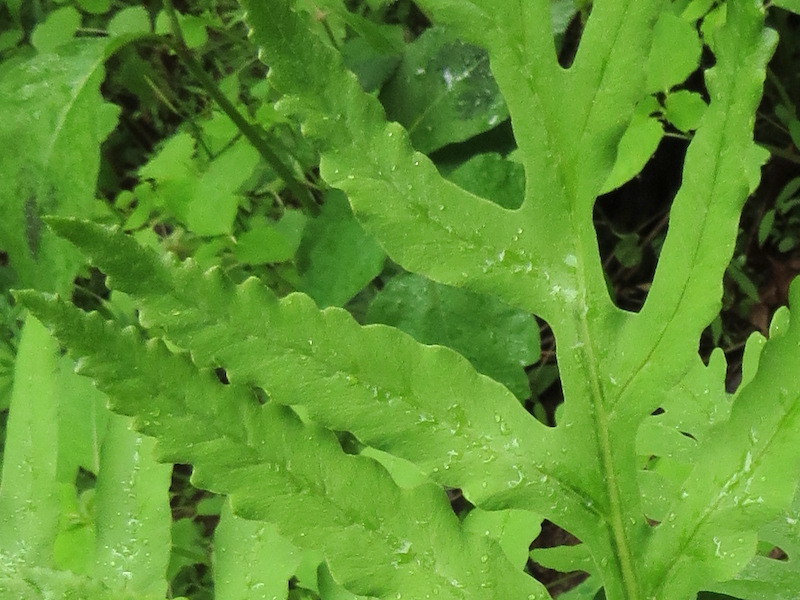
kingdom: Plantae
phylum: Tracheophyta
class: Polypodiopsida
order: Polypodiales
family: Onocleaceae
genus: Onoclea
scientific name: Onoclea sensibilis
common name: Sensitive fern
